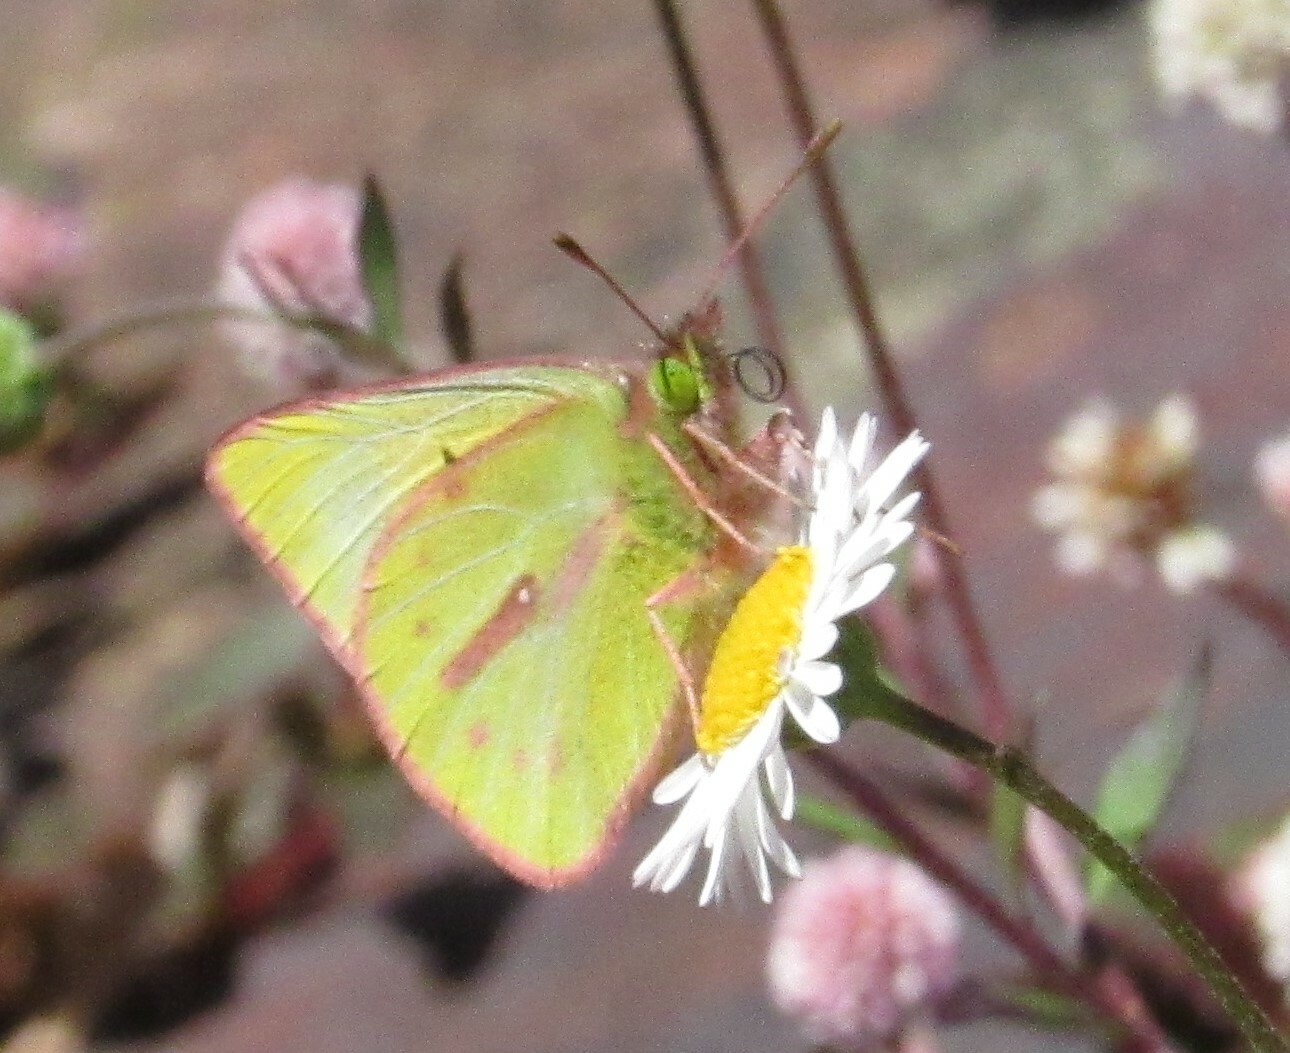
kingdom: Animalia
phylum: Arthropoda
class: Insecta
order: Lepidoptera
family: Pieridae
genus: Colias
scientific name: Colias dimera
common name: Dimera sulphur
